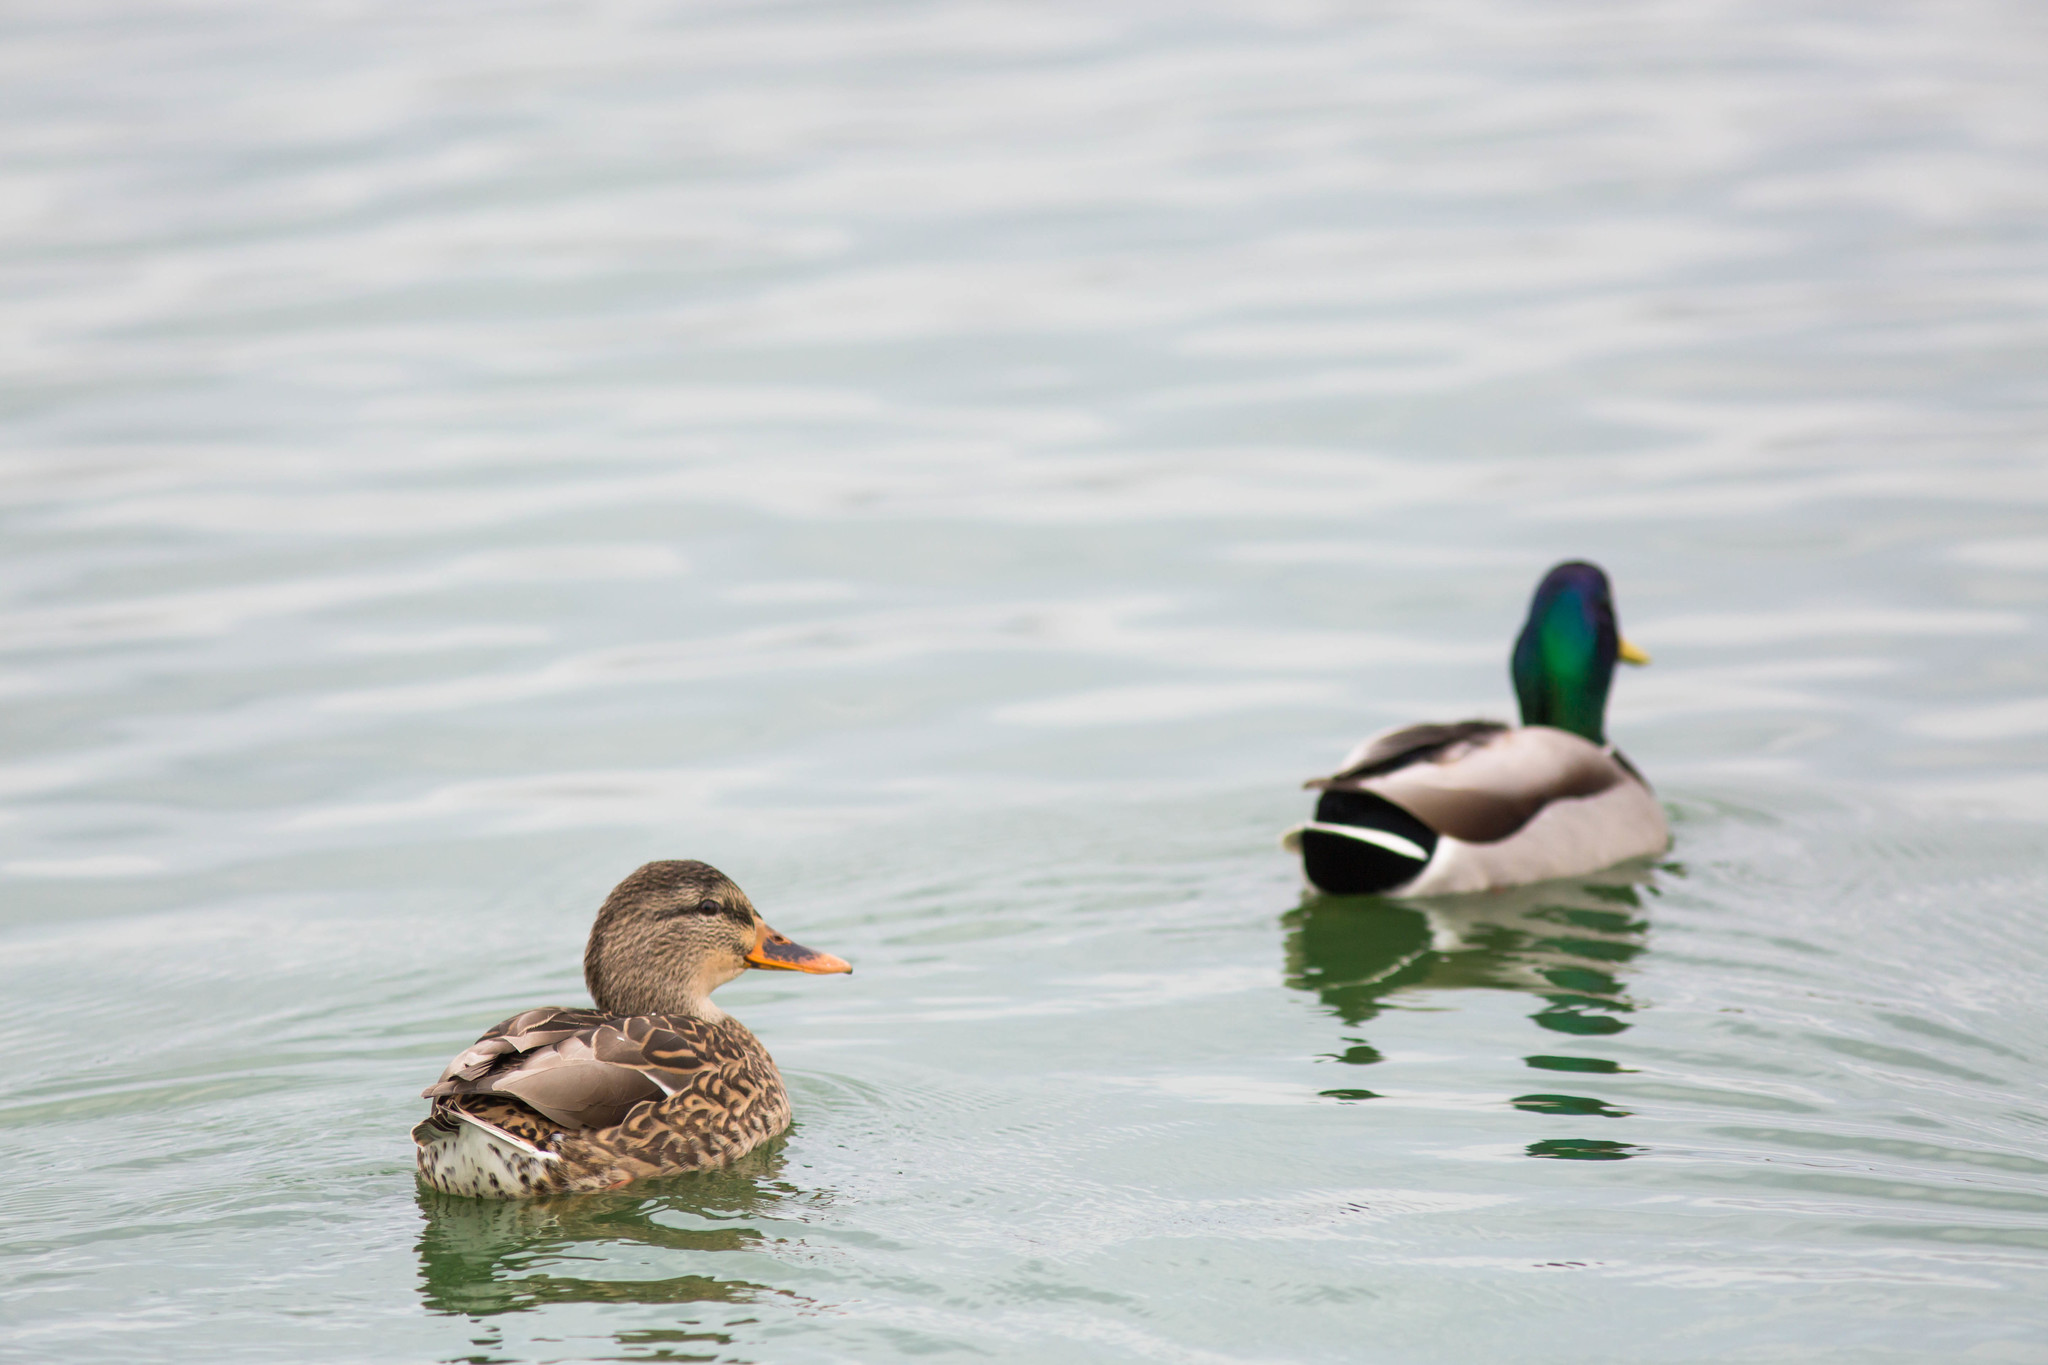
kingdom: Animalia
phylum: Chordata
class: Aves
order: Anseriformes
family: Anatidae
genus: Anas
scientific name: Anas platyrhynchos
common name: Mallard
